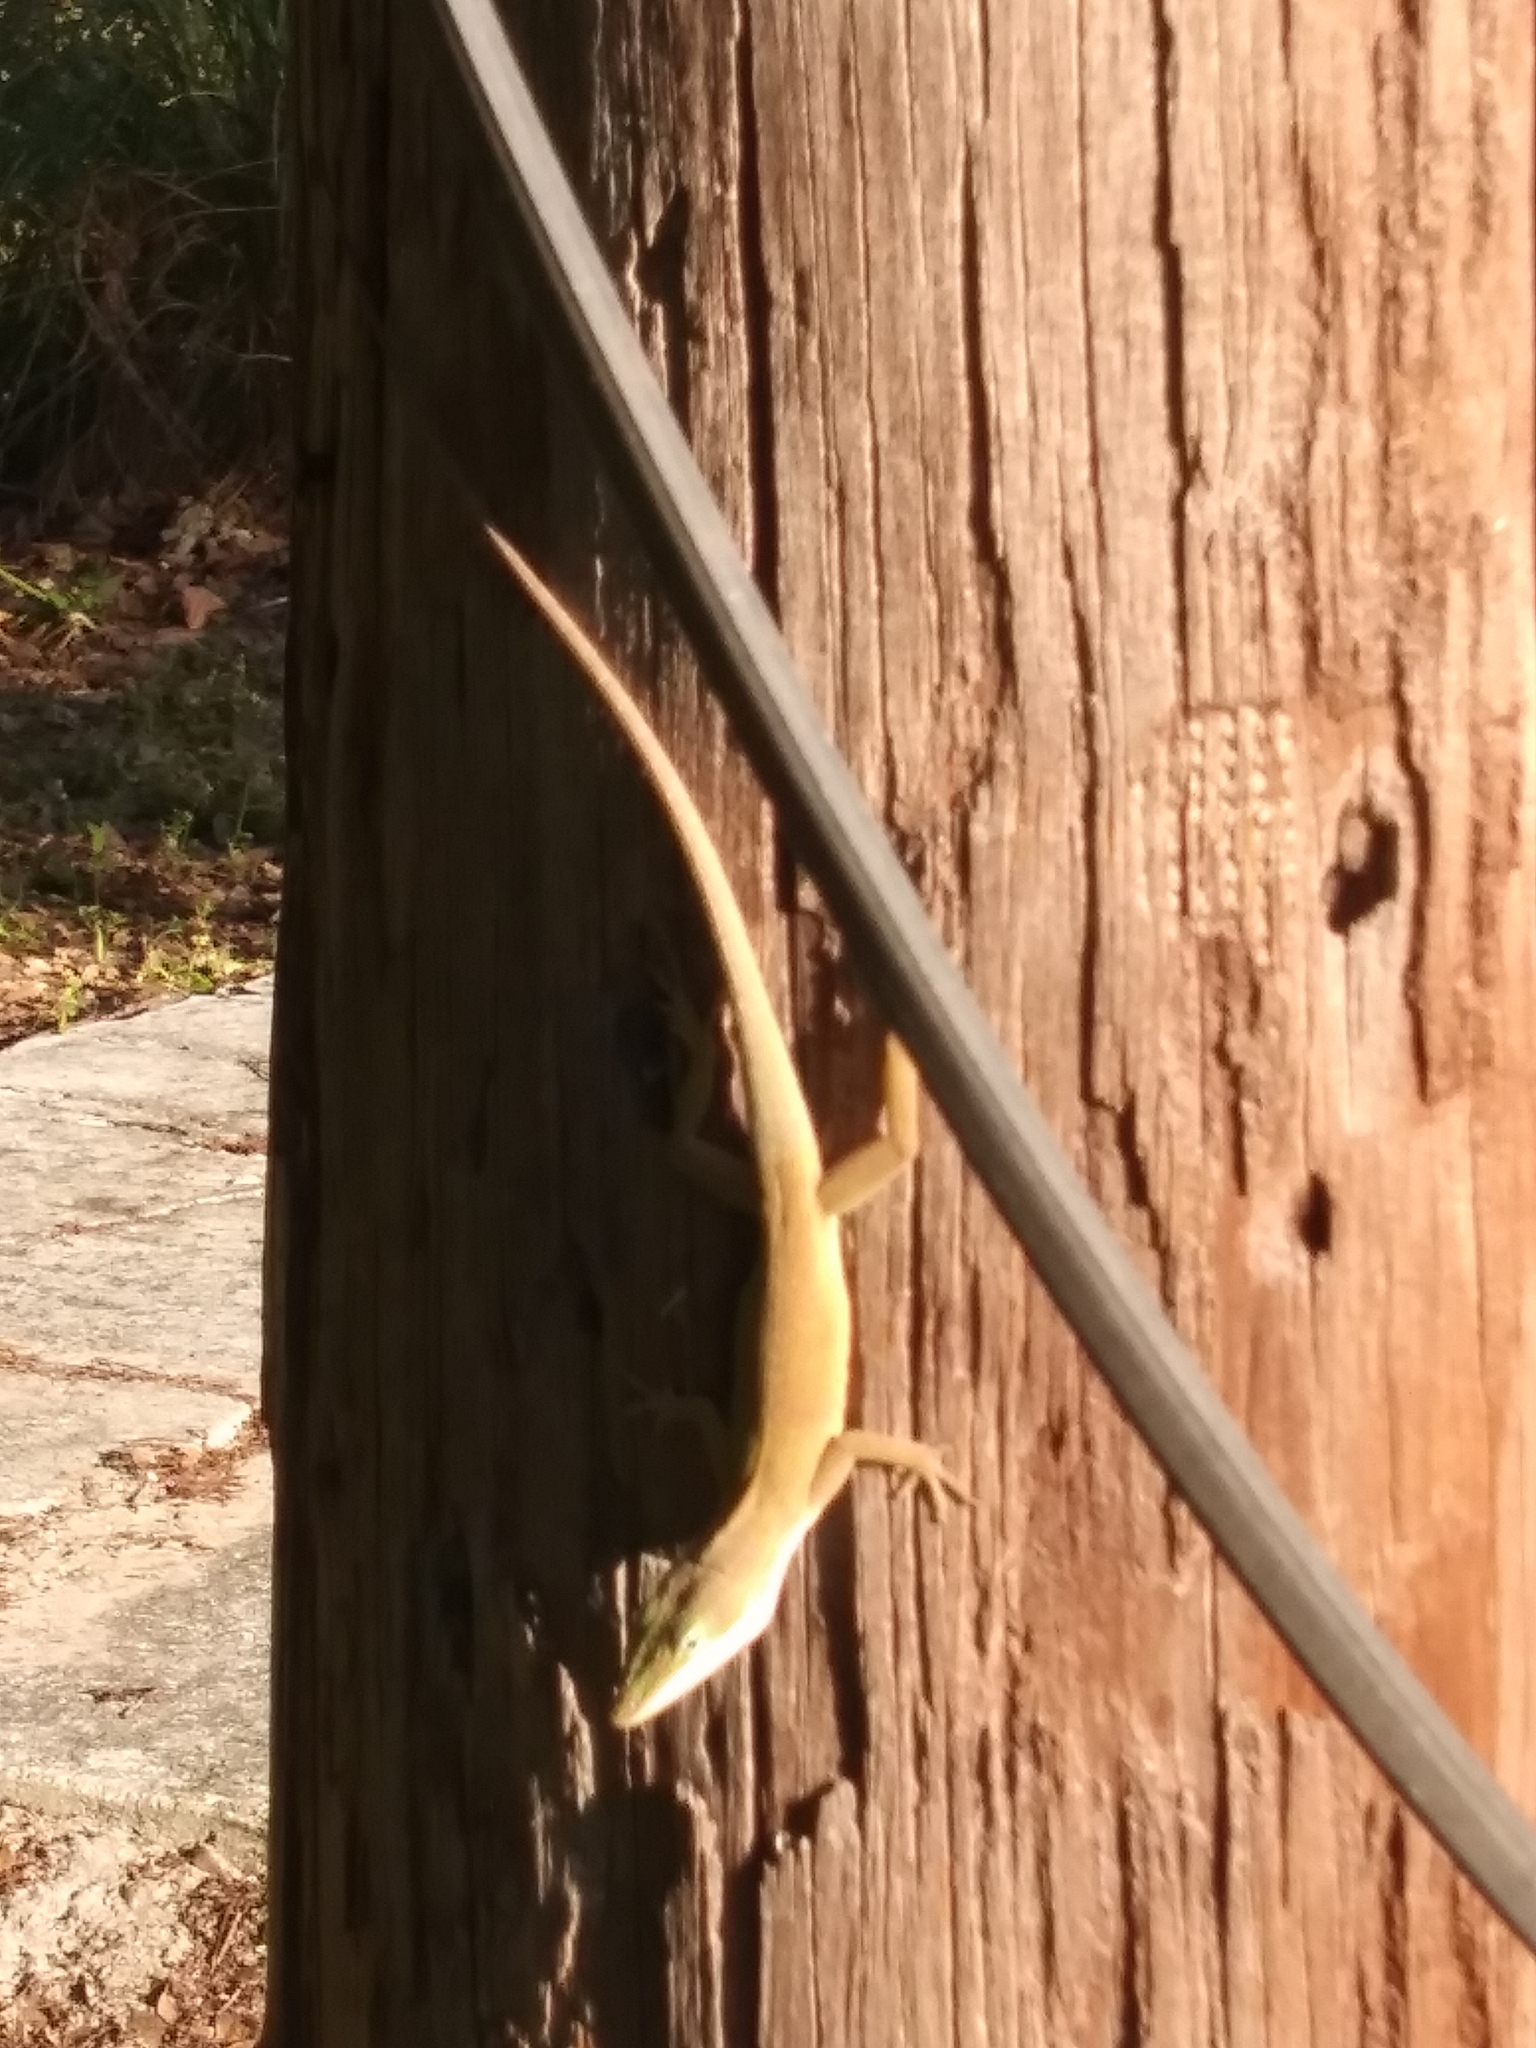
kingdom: Animalia
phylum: Chordata
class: Squamata
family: Dactyloidae
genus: Anolis
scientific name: Anolis carolinensis
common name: Green anole
